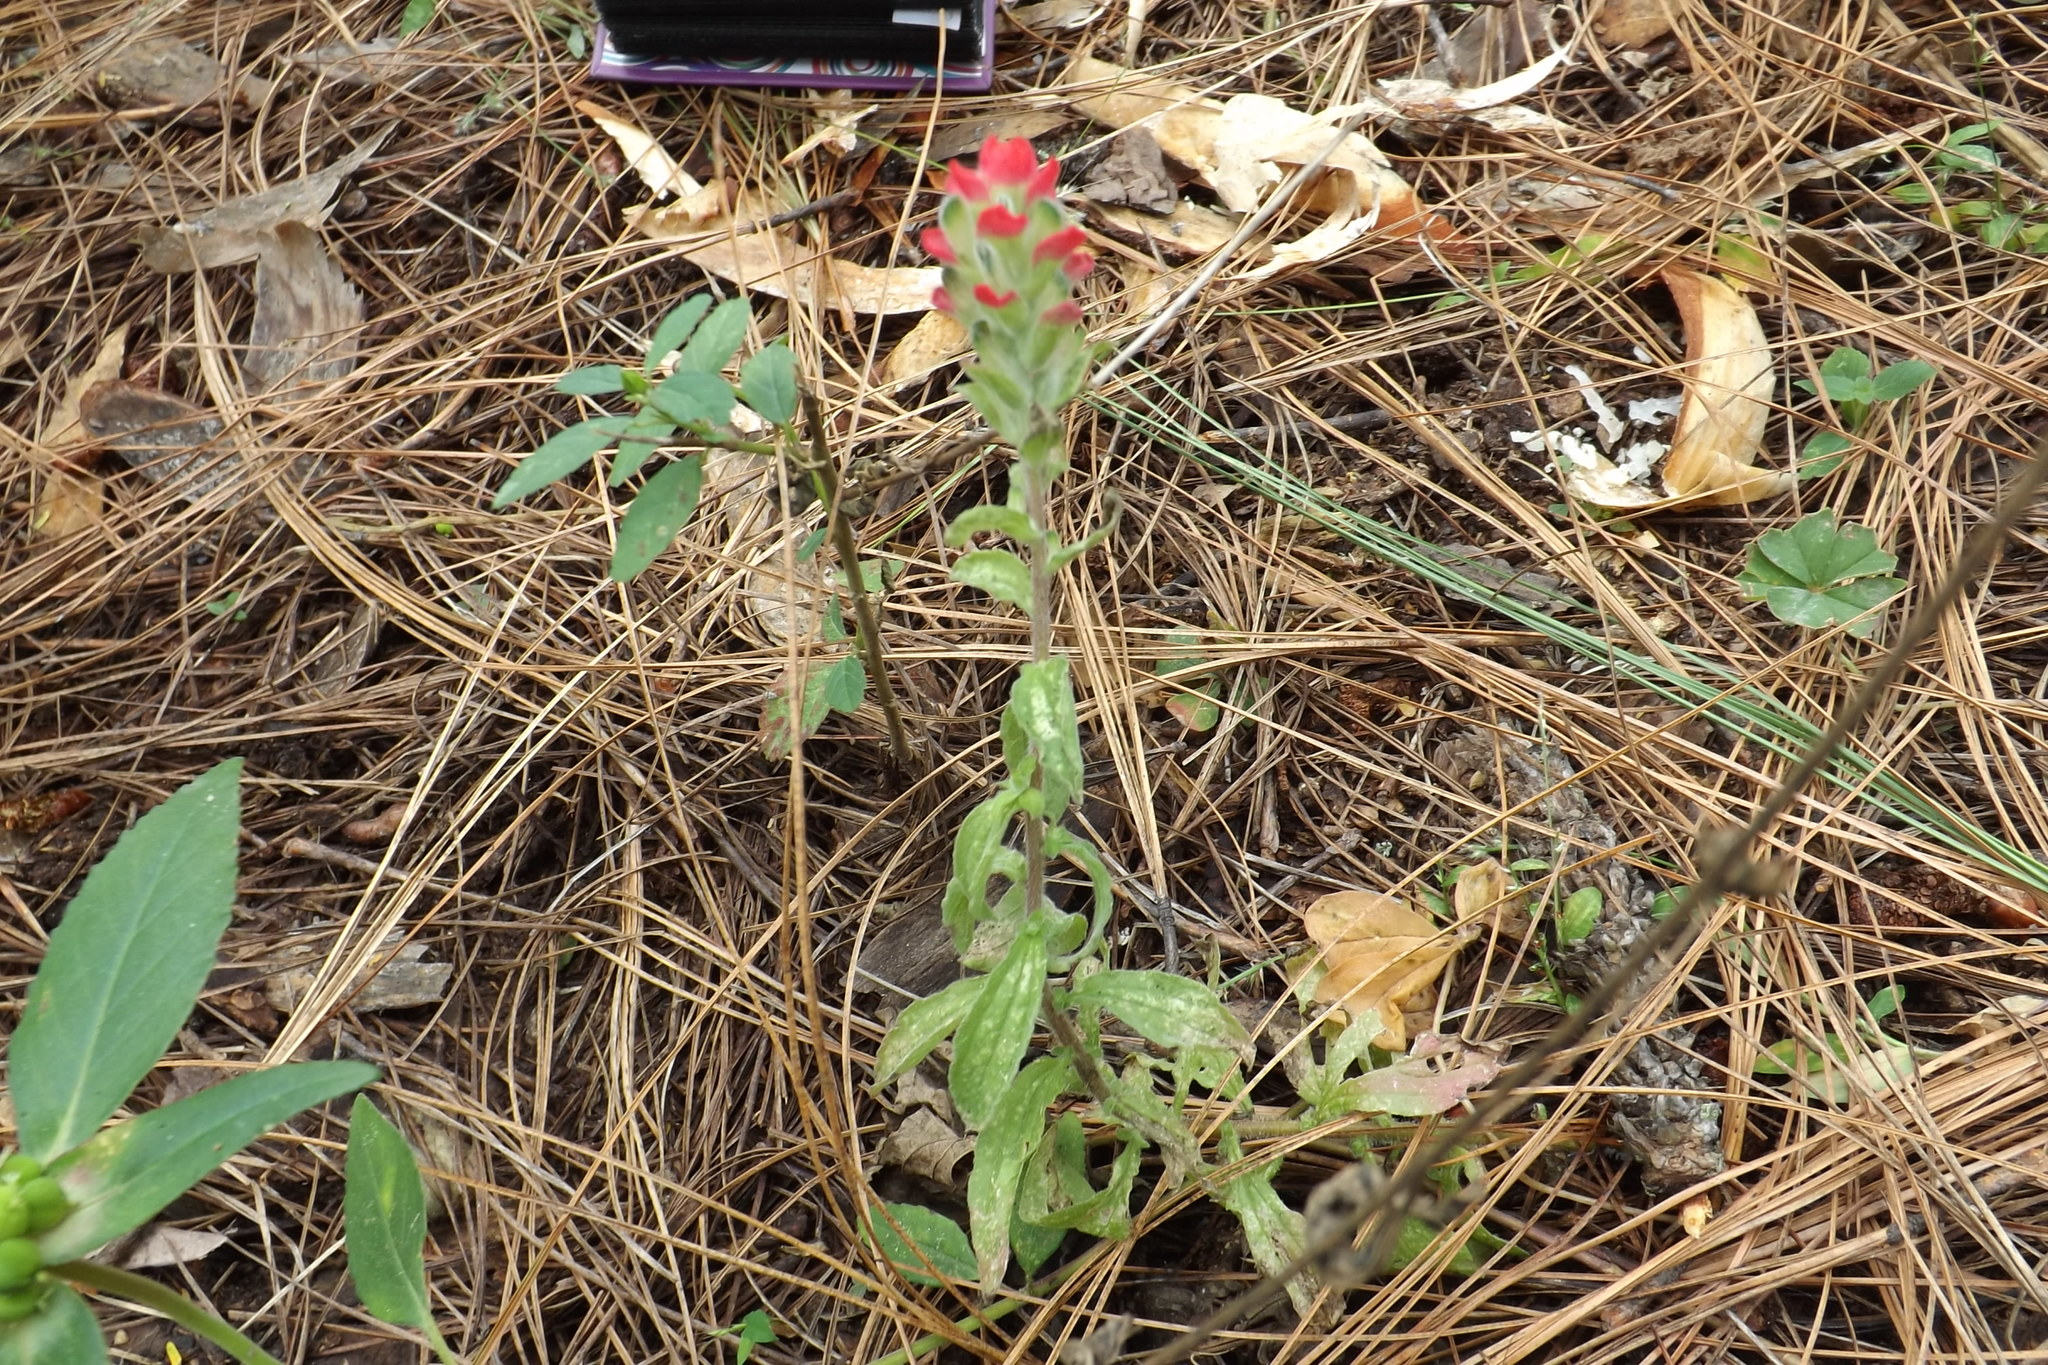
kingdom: Plantae
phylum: Tracheophyta
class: Magnoliopsida
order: Lamiales
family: Orobanchaceae
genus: Castilleja
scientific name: Castilleja arvensis
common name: Indian paintbrush
